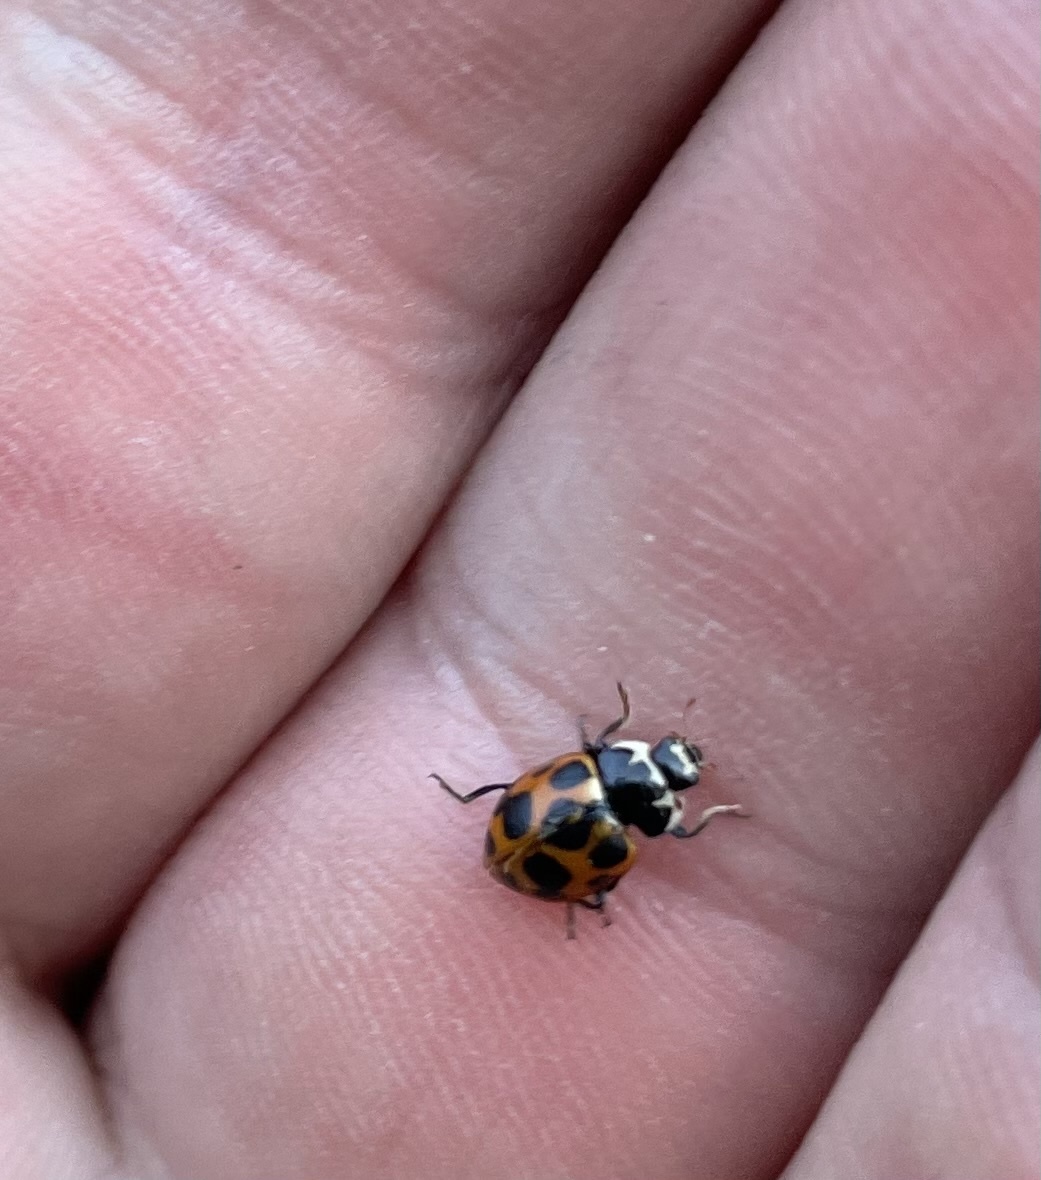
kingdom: Animalia
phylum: Arthropoda
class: Insecta
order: Coleoptera
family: Coccinellidae
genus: Ceratomegilla
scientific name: Ceratomegilla notata
